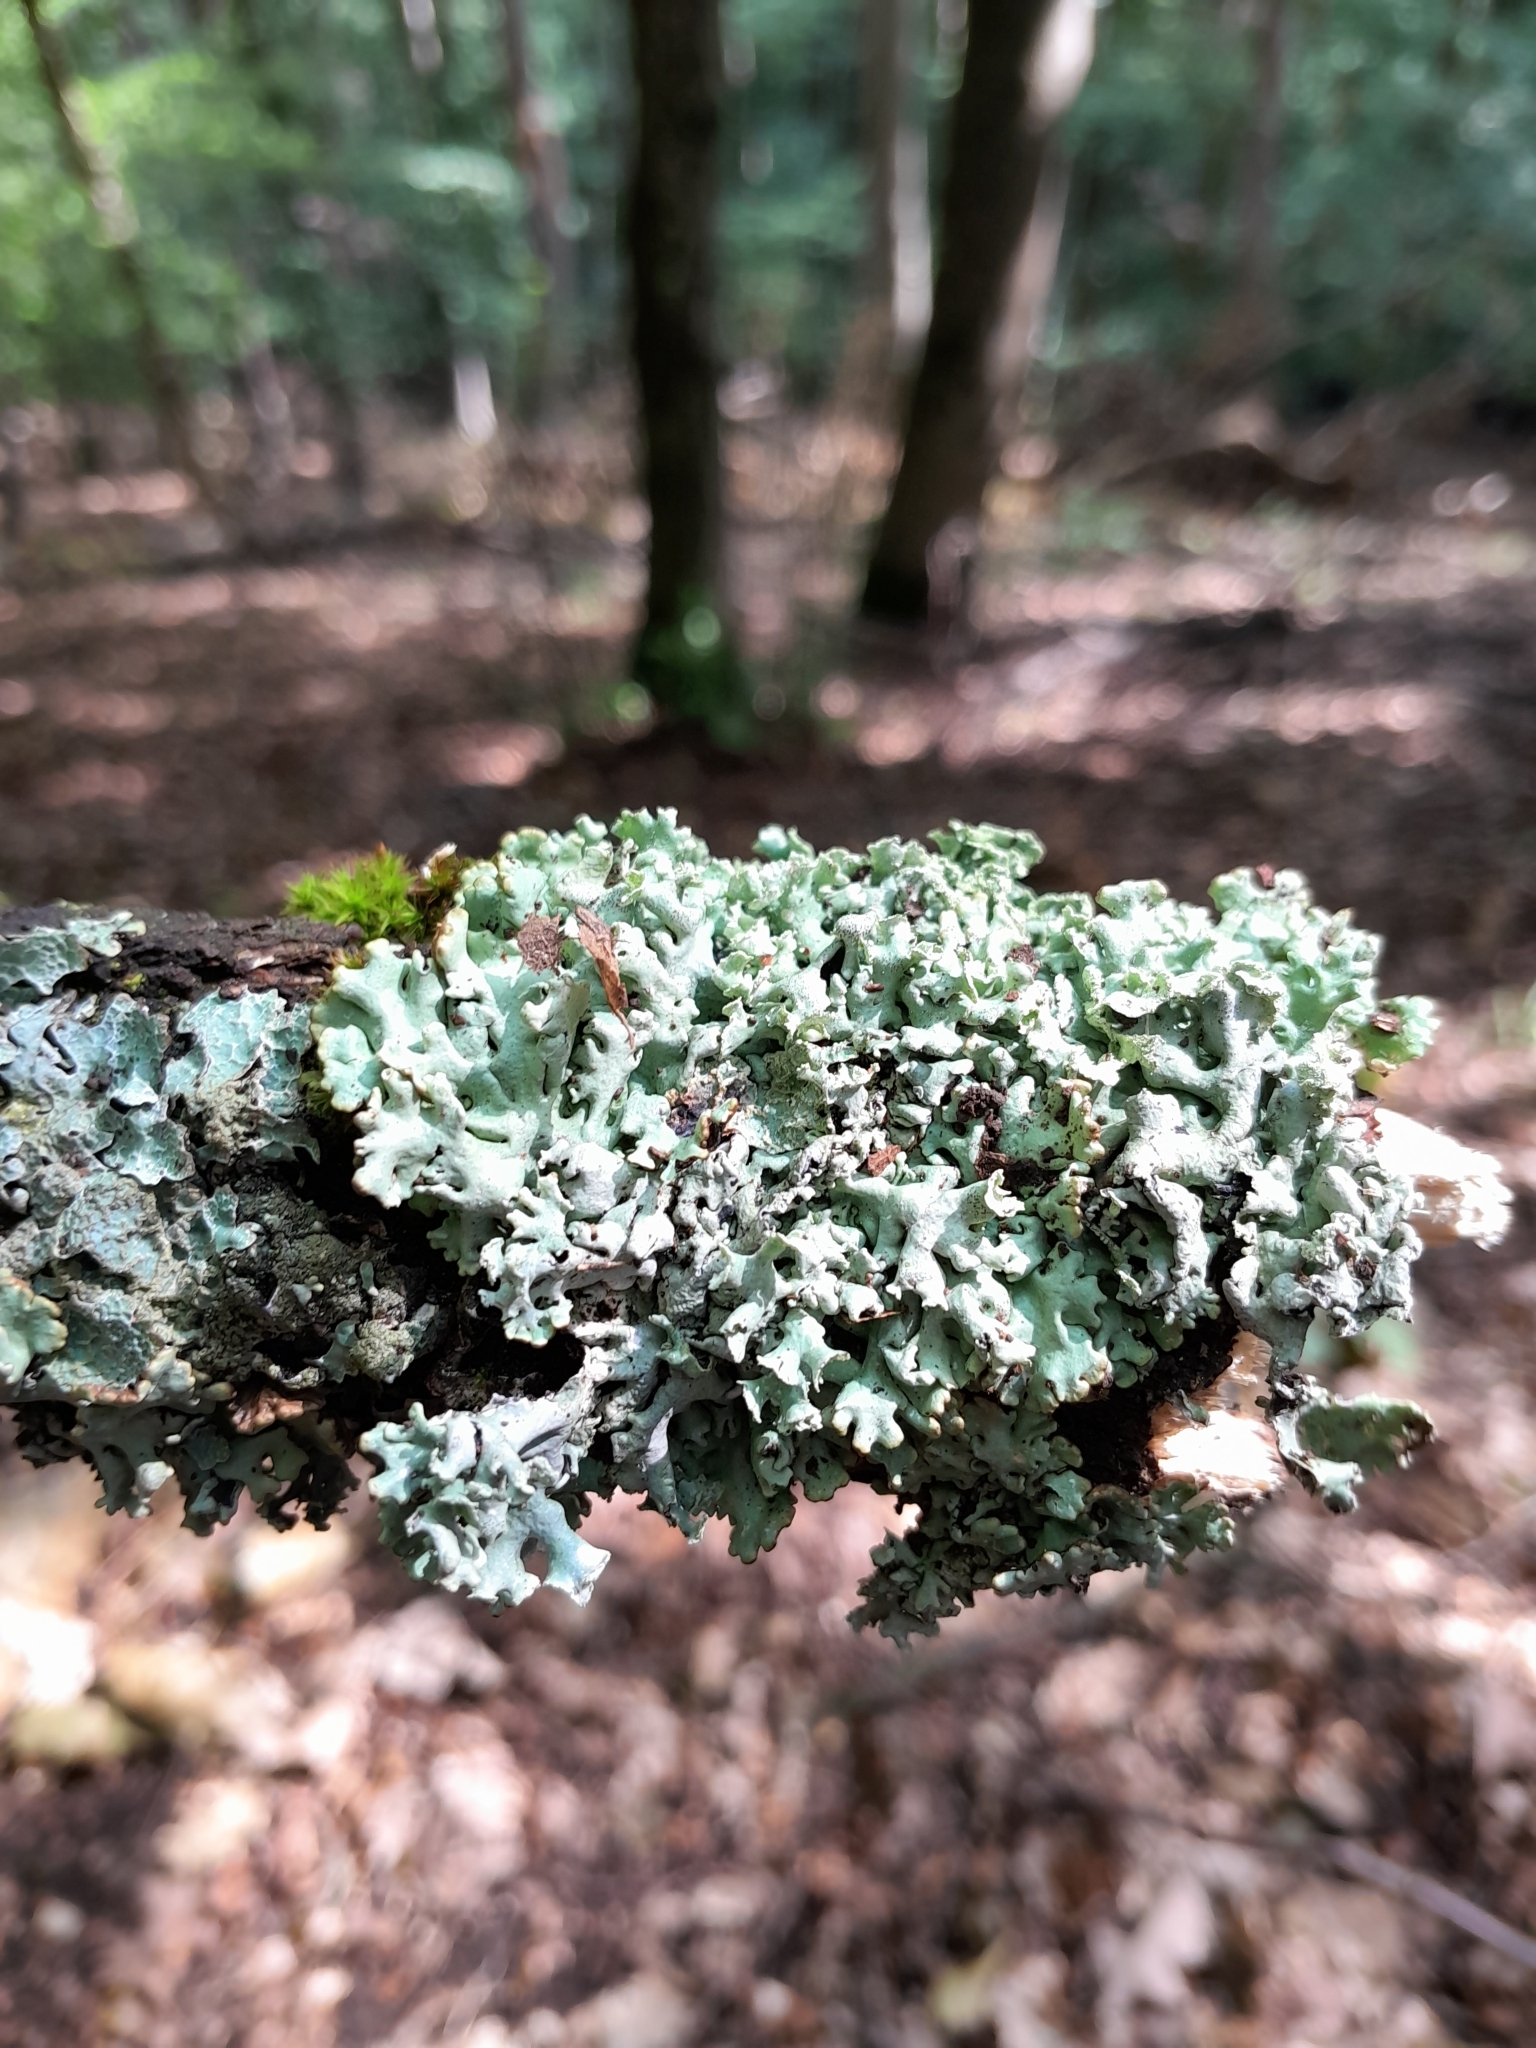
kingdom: Fungi
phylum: Ascomycota
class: Lecanoromycetes
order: Lecanorales
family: Parmeliaceae
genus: Hypogymnia
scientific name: Hypogymnia physodes
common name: Dark crottle
